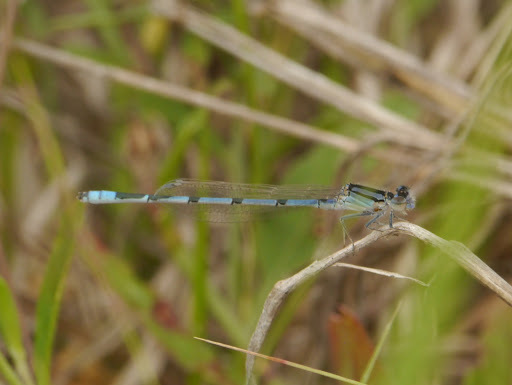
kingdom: Animalia
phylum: Arthropoda
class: Insecta
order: Odonata
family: Coenagrionidae
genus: Enallagma
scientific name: Enallagma civile
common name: Damselfly
